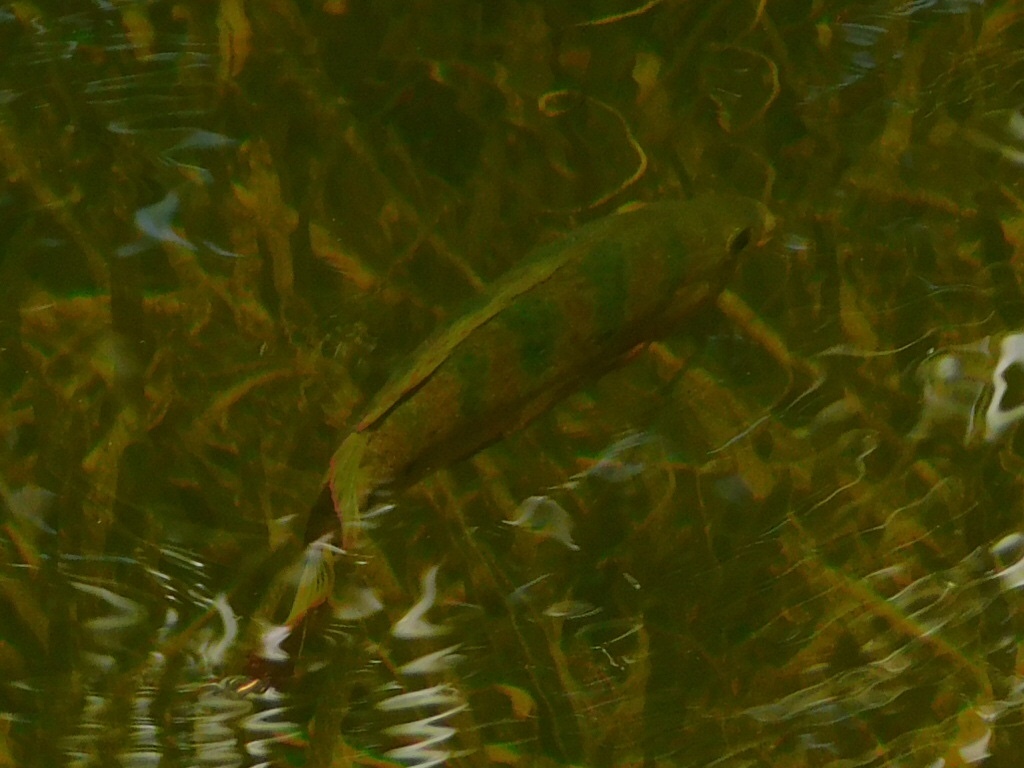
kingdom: Animalia
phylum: Chordata
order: Perciformes
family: Cichlidae
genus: Mayaheros
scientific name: Mayaheros urophthalmus
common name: Mayan cichlid
